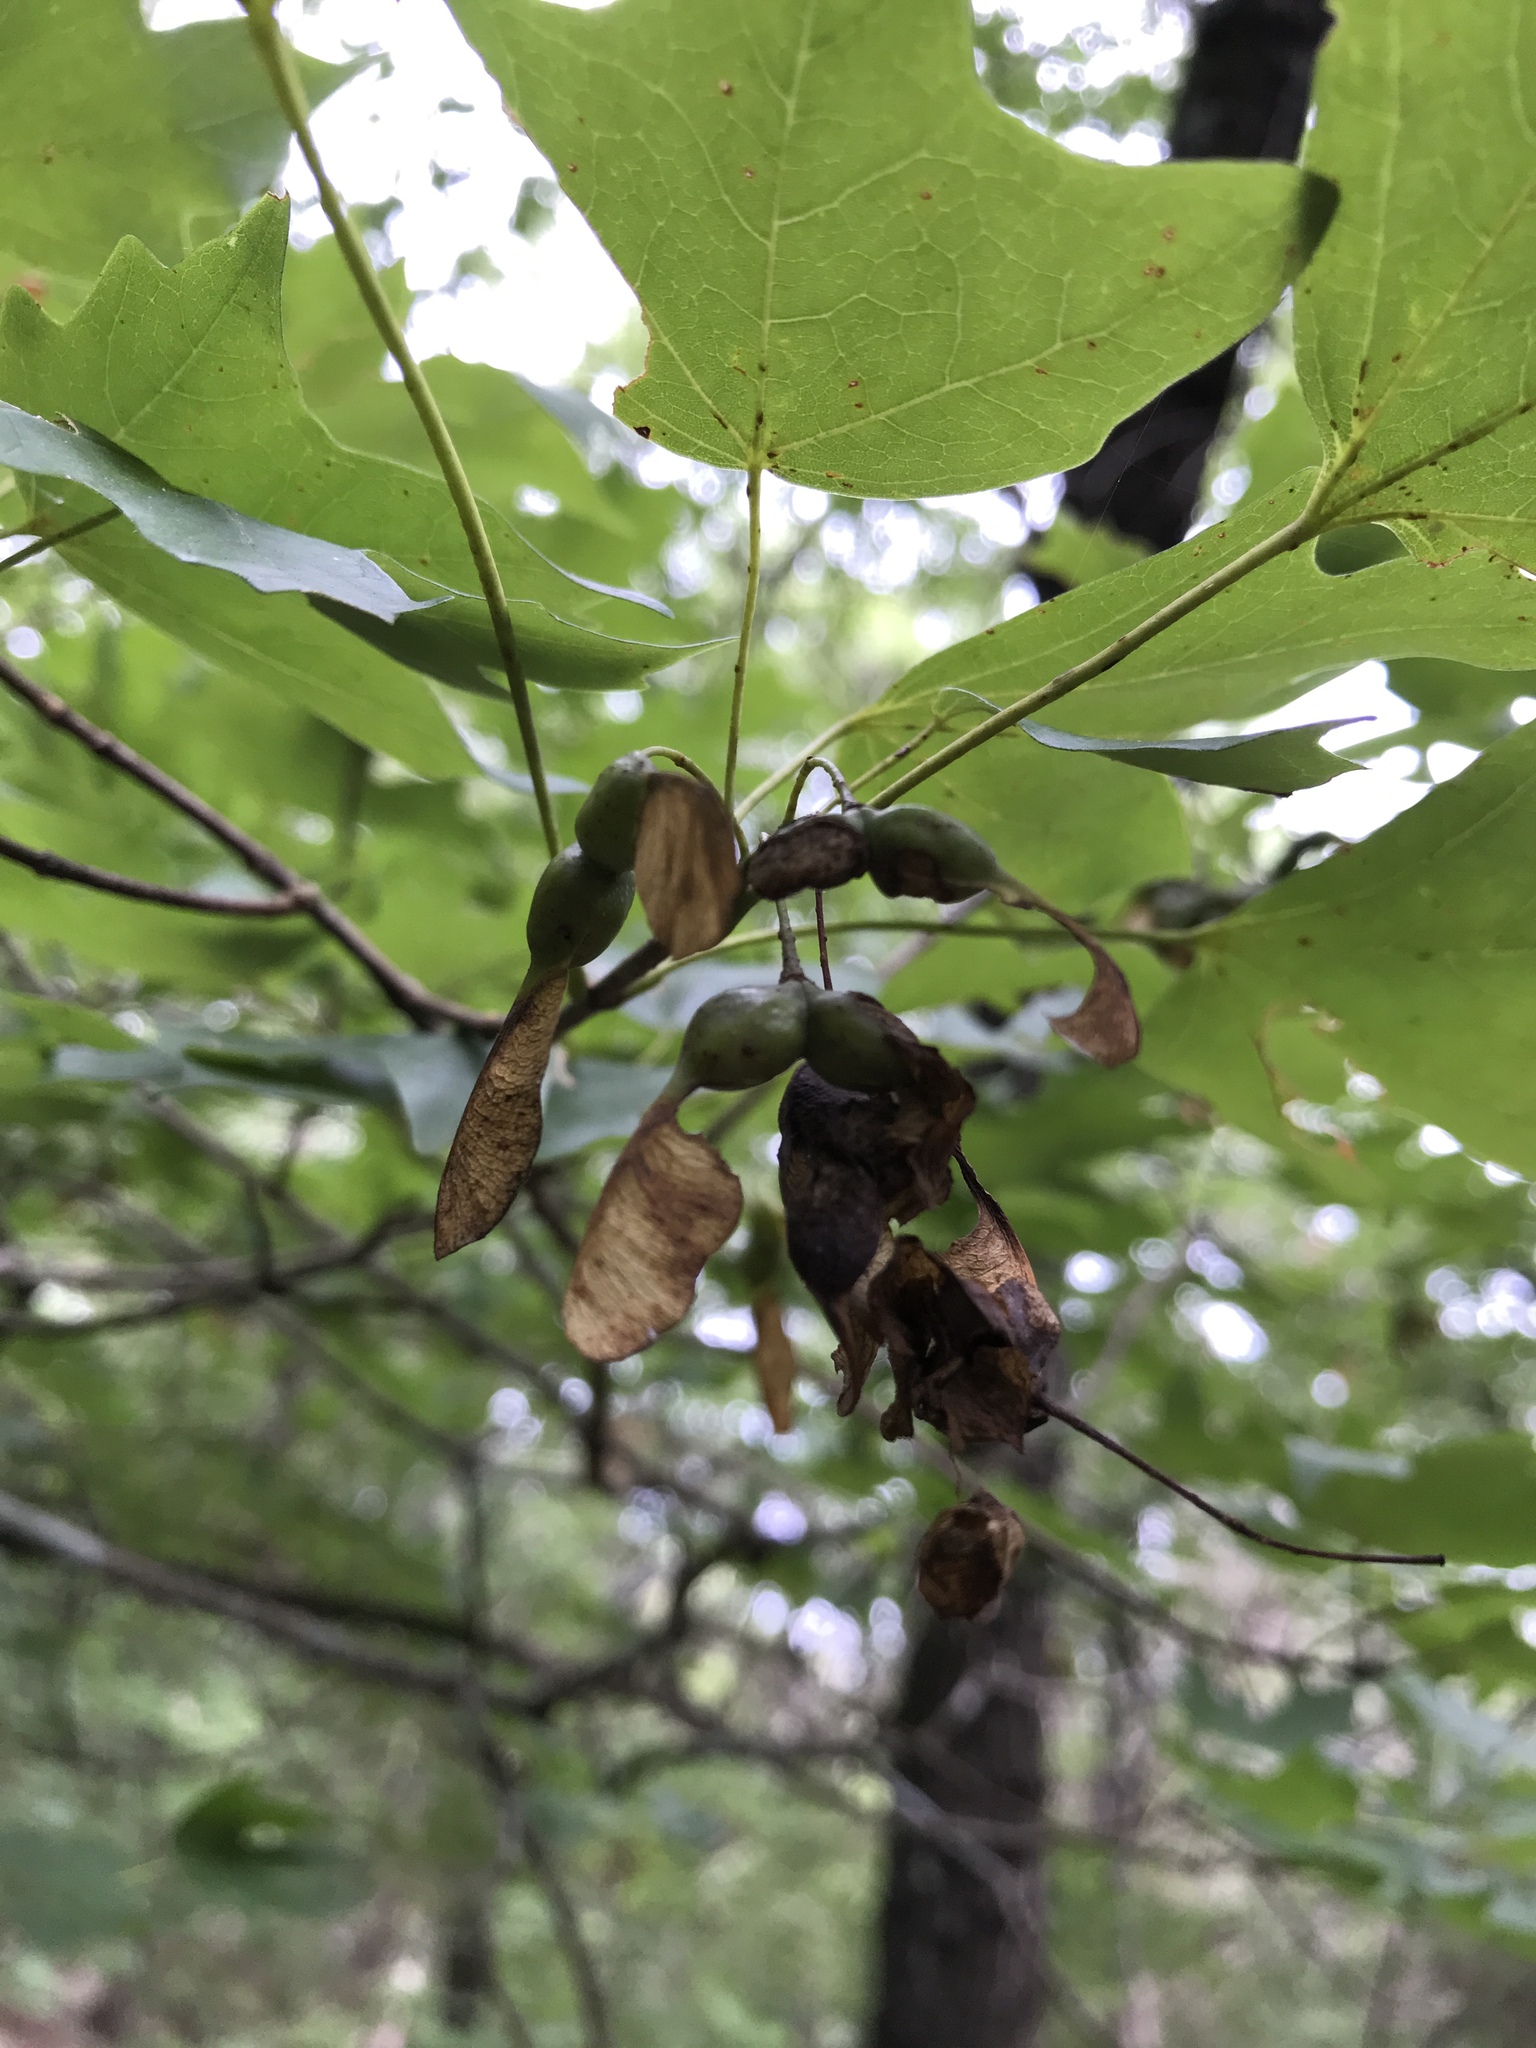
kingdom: Plantae
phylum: Tracheophyta
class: Magnoliopsida
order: Sapindales
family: Sapindaceae
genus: Acer
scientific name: Acer grandidentatum
